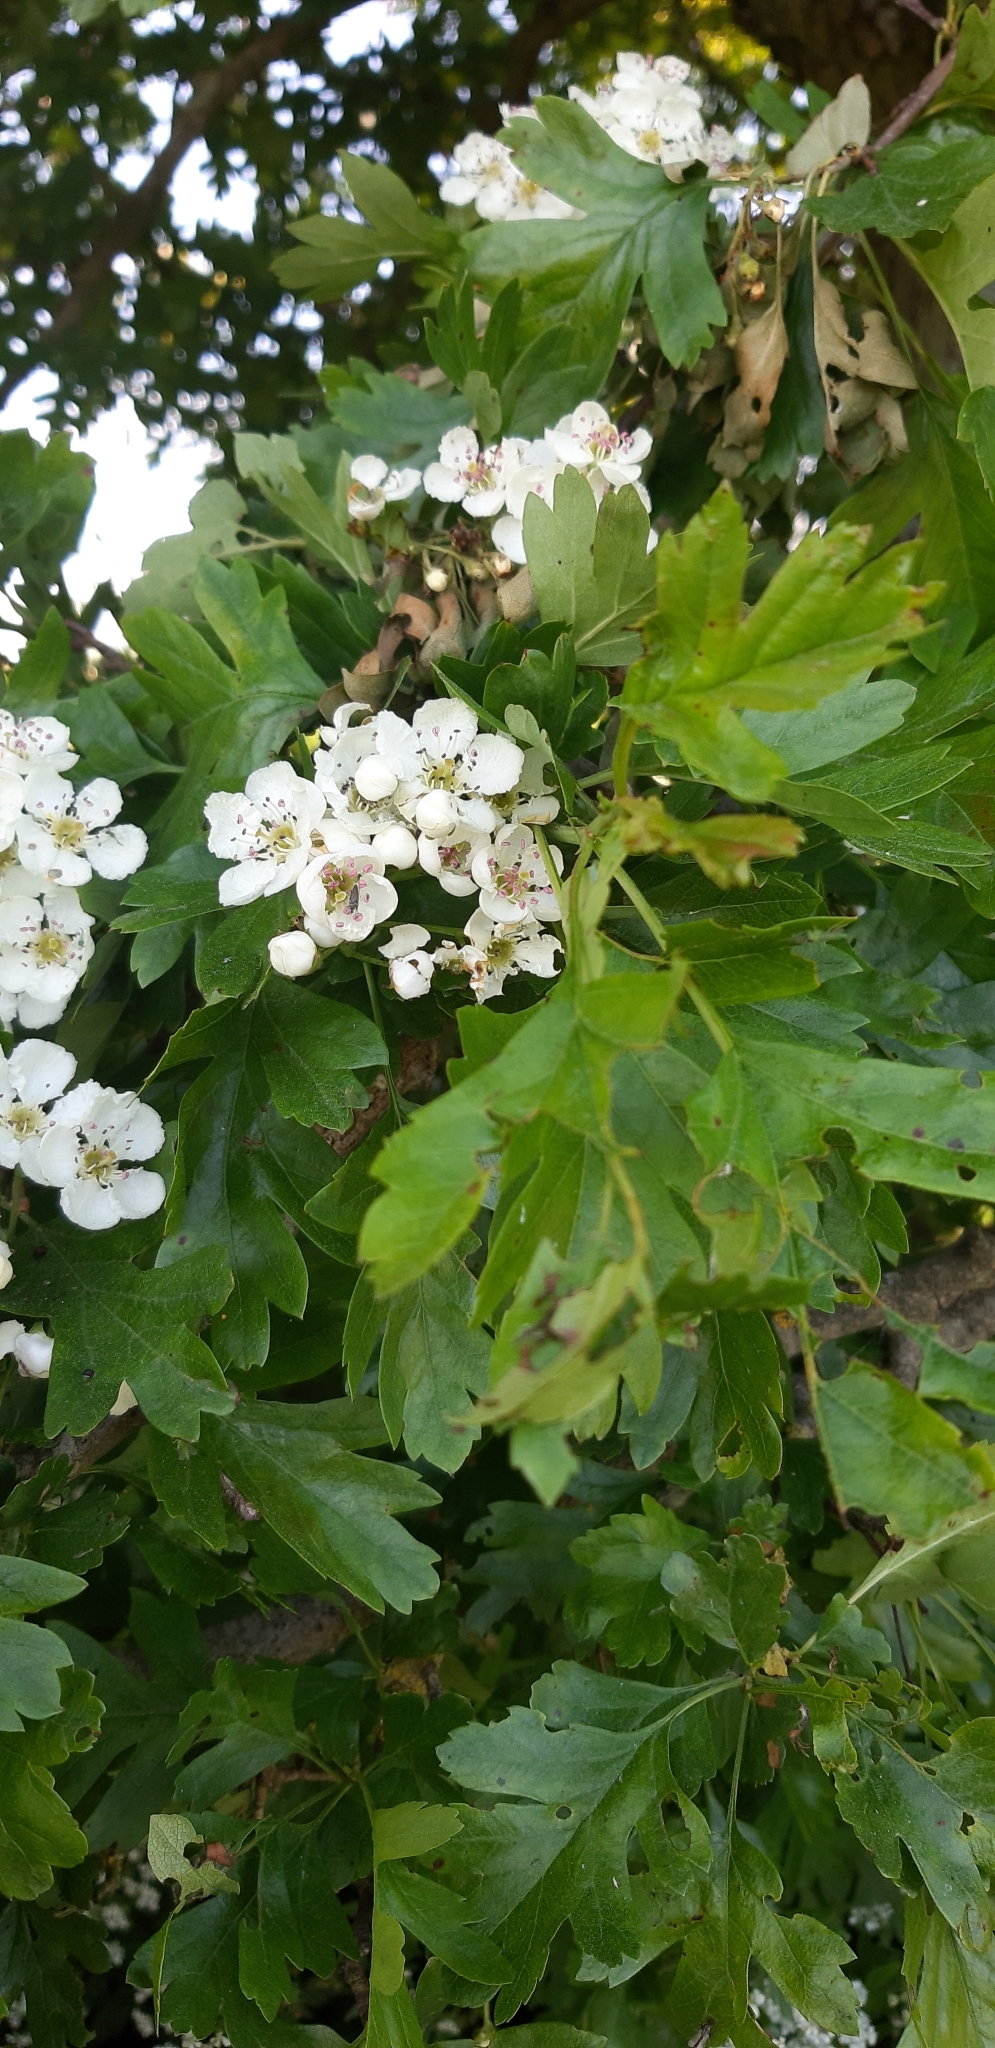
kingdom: Plantae
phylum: Tracheophyta
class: Magnoliopsida
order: Rosales
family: Rosaceae
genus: Crataegus
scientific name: Crataegus monogyna
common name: Hawthorn
